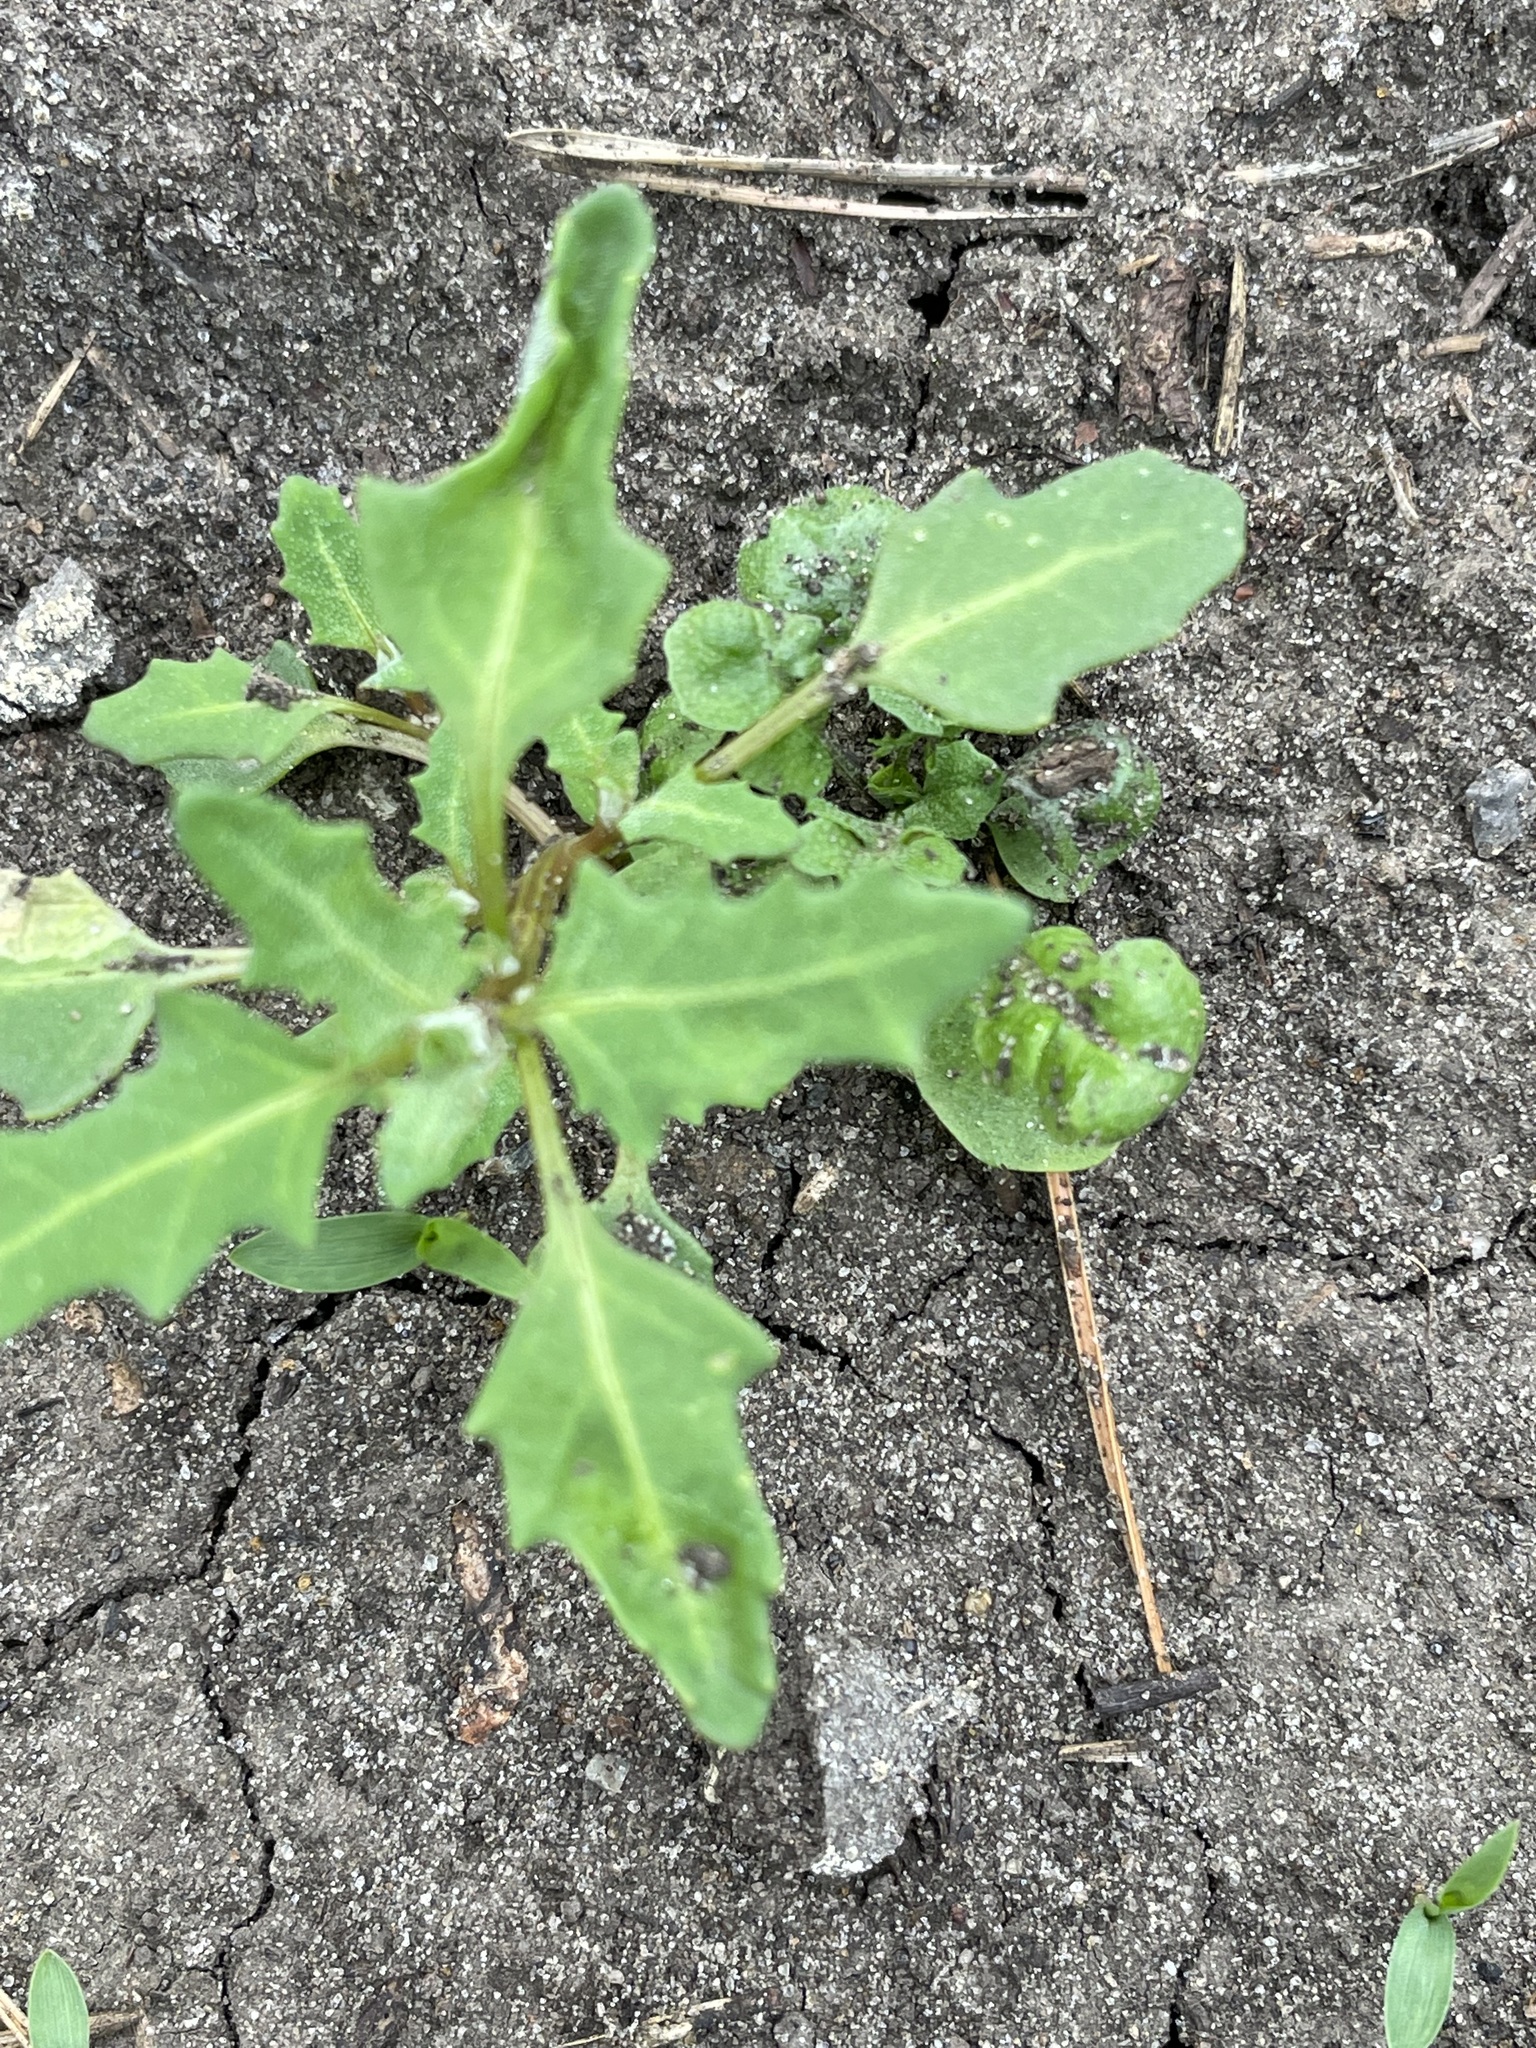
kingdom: Plantae
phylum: Tracheophyta
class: Magnoliopsida
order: Caryophyllales
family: Amaranthaceae
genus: Oxybasis
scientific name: Oxybasis glauca
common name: Glaucous goosefoot
